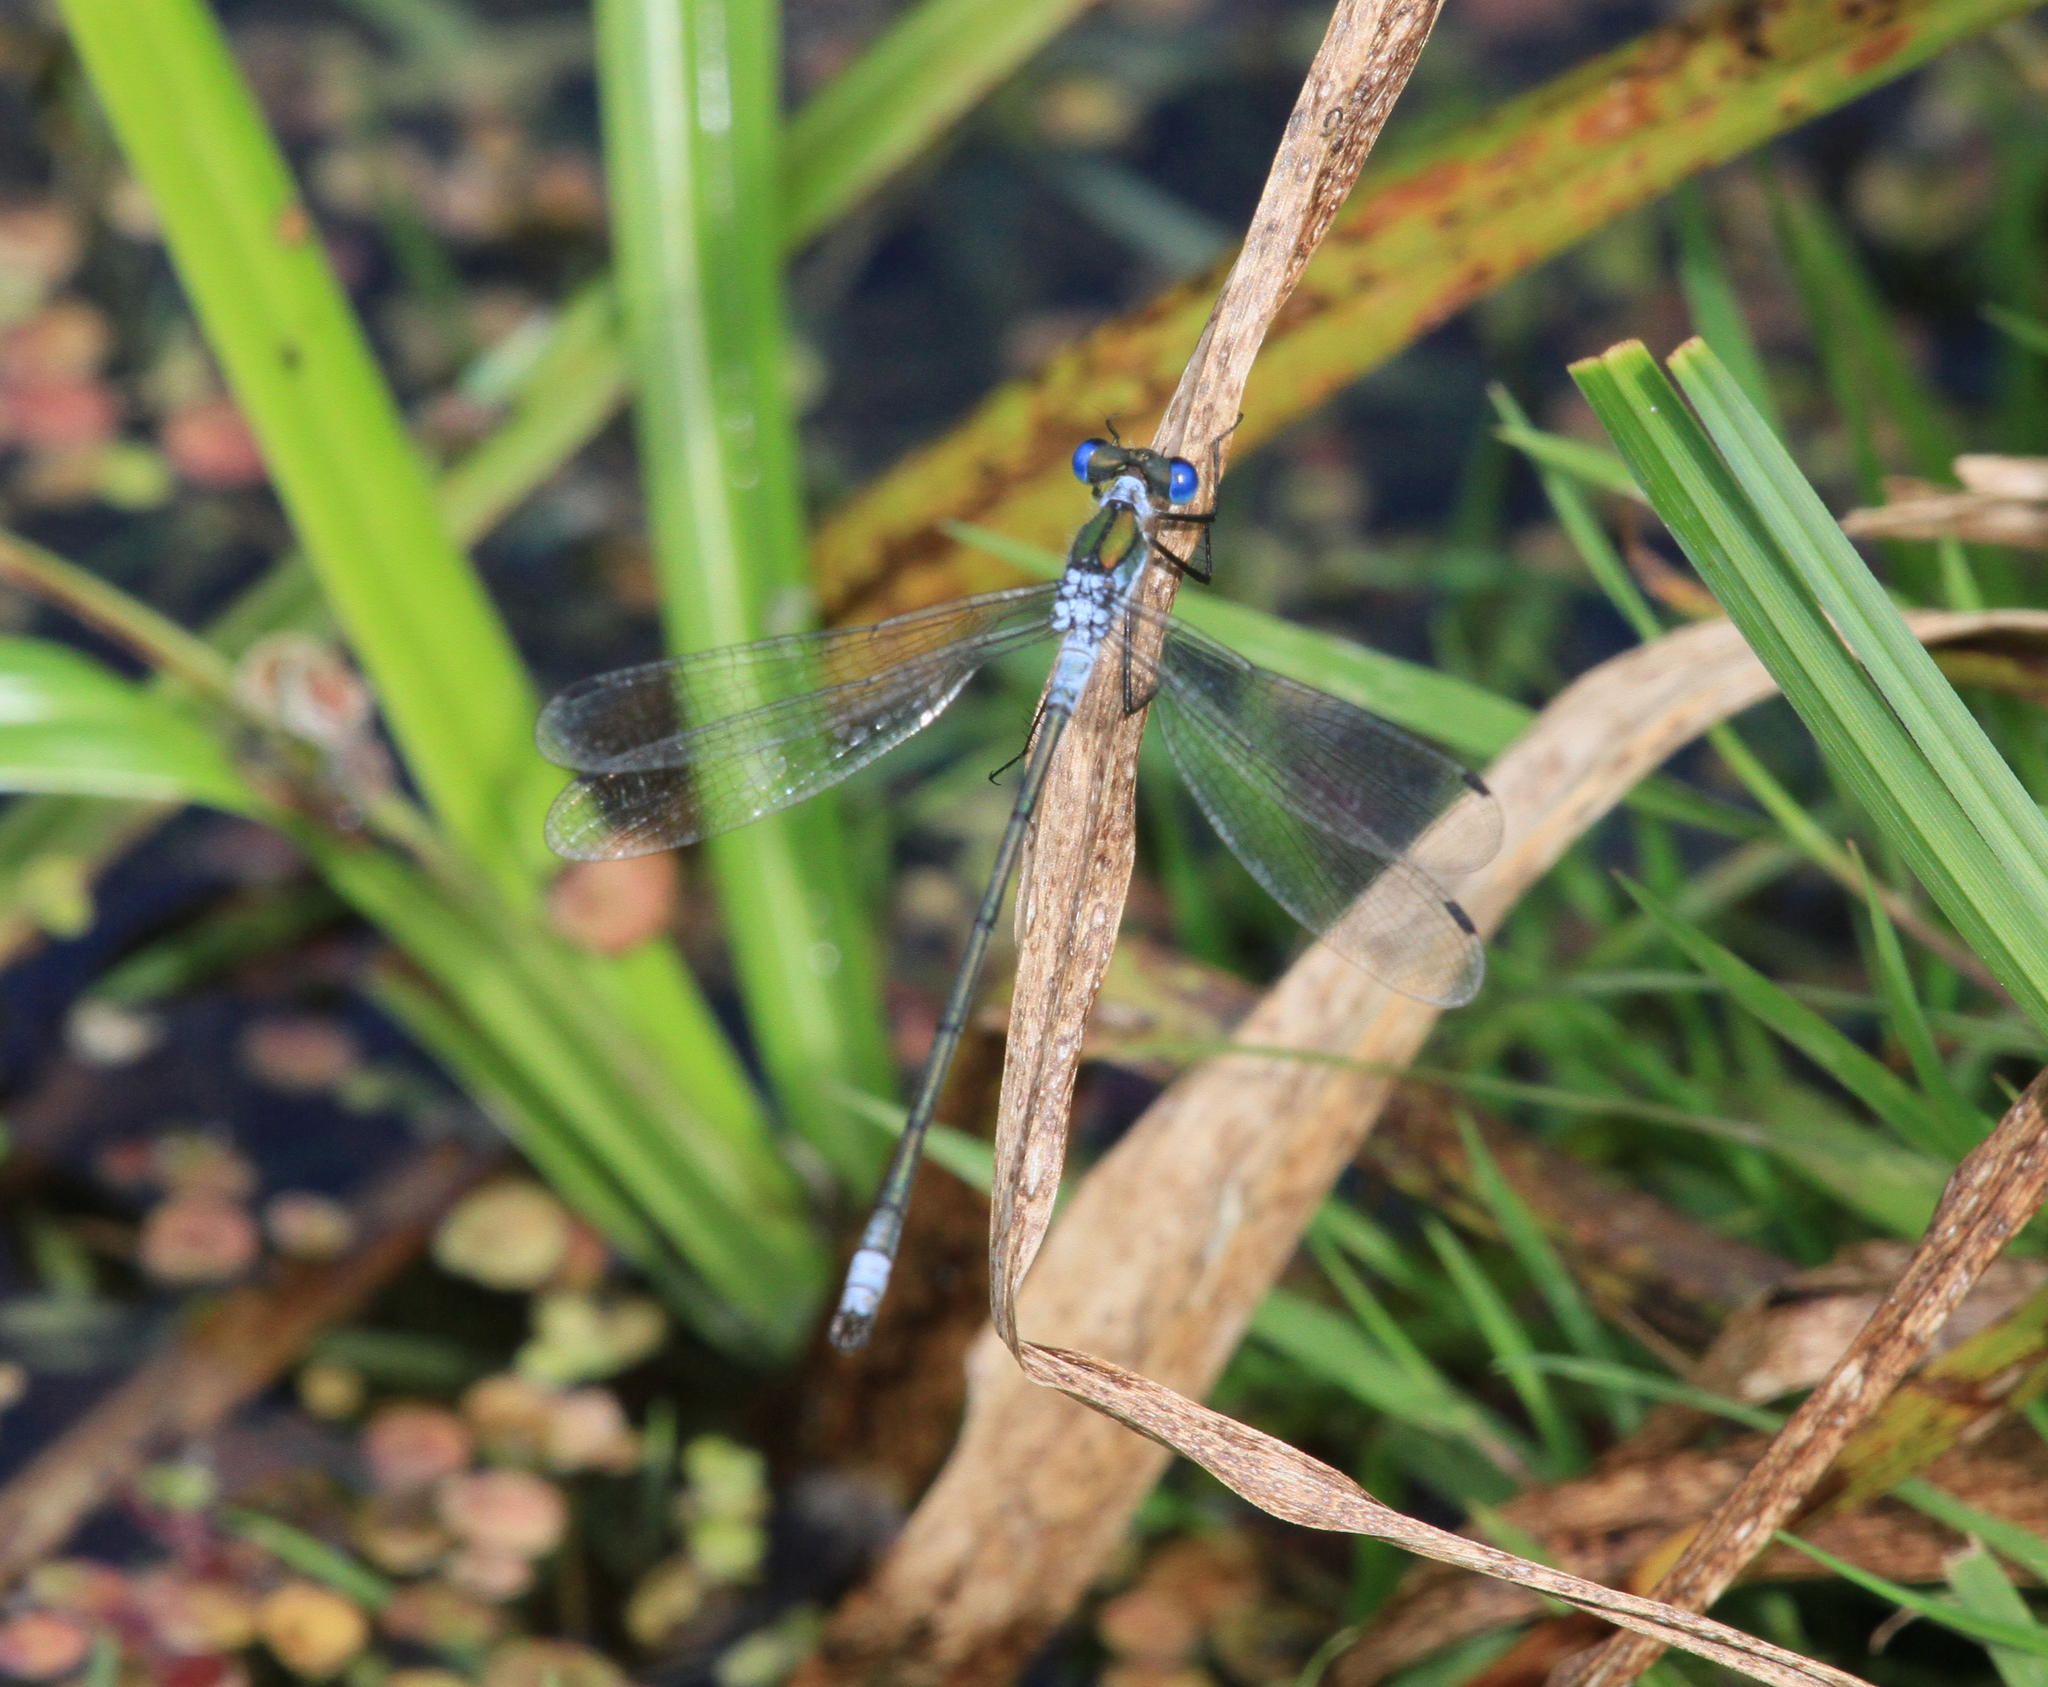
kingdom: Animalia
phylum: Arthropoda
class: Insecta
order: Odonata
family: Lestidae
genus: Lestes
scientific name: Lestes sponsa
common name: Common spreadwing
